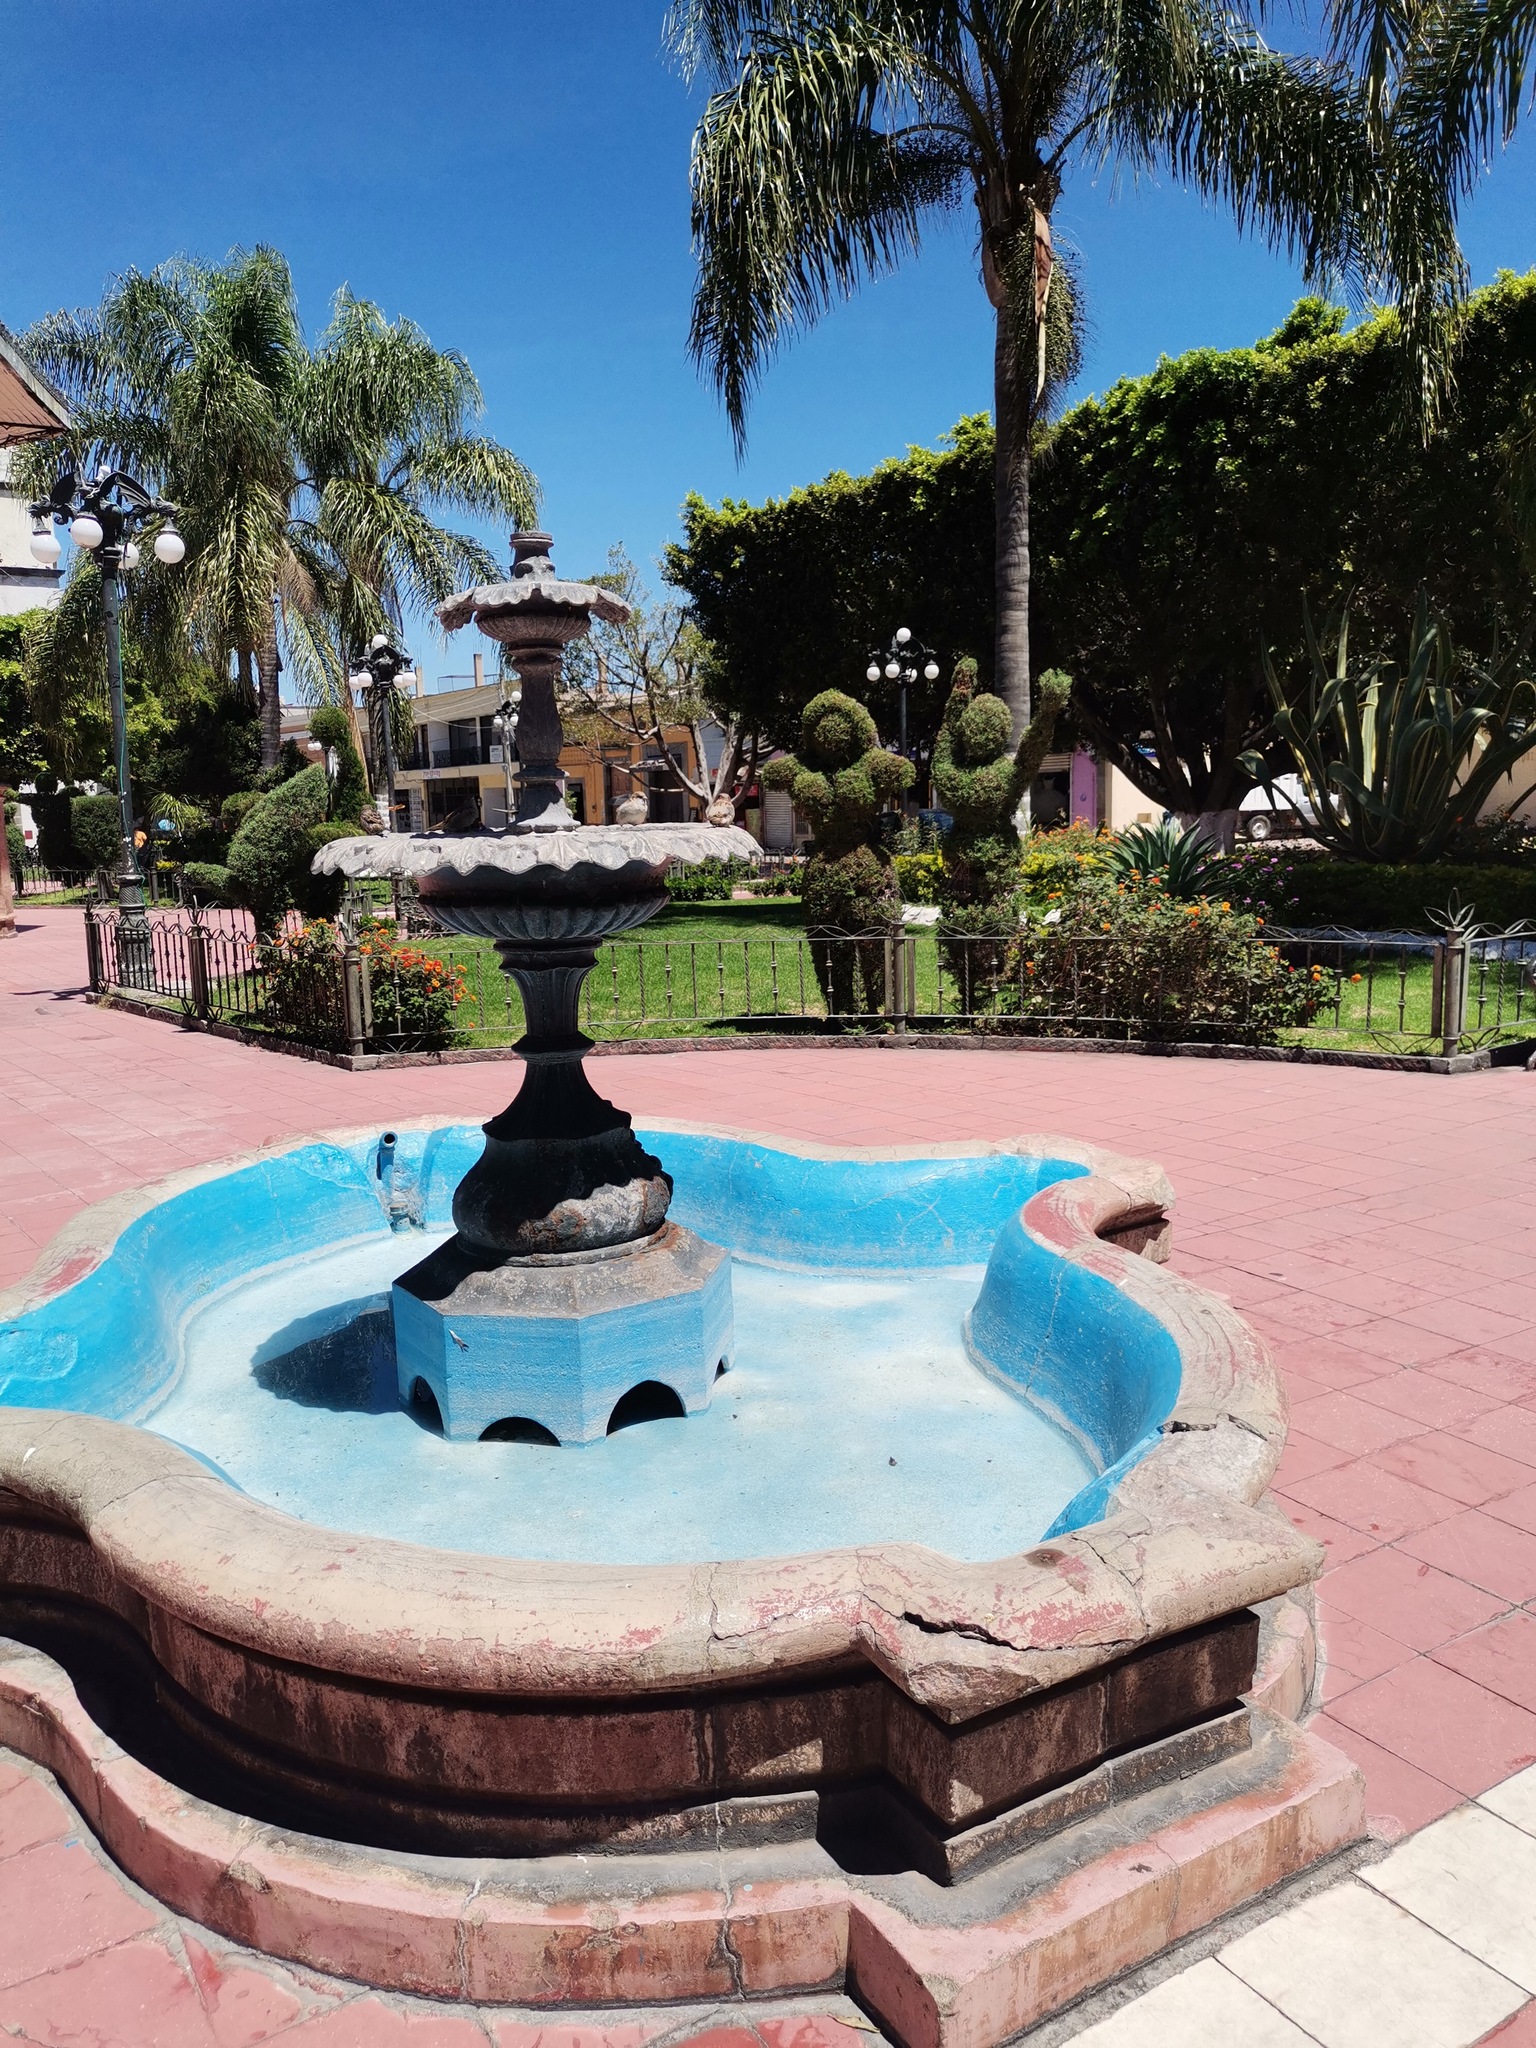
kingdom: Animalia
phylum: Chordata
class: Aves
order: Passeriformes
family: Passeridae
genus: Passer
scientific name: Passer domesticus
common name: House sparrow
